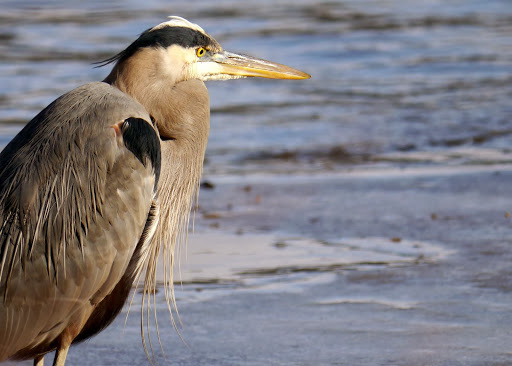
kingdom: Animalia
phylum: Chordata
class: Aves
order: Pelecaniformes
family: Ardeidae
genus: Ardea
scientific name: Ardea herodias
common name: Great blue heron
